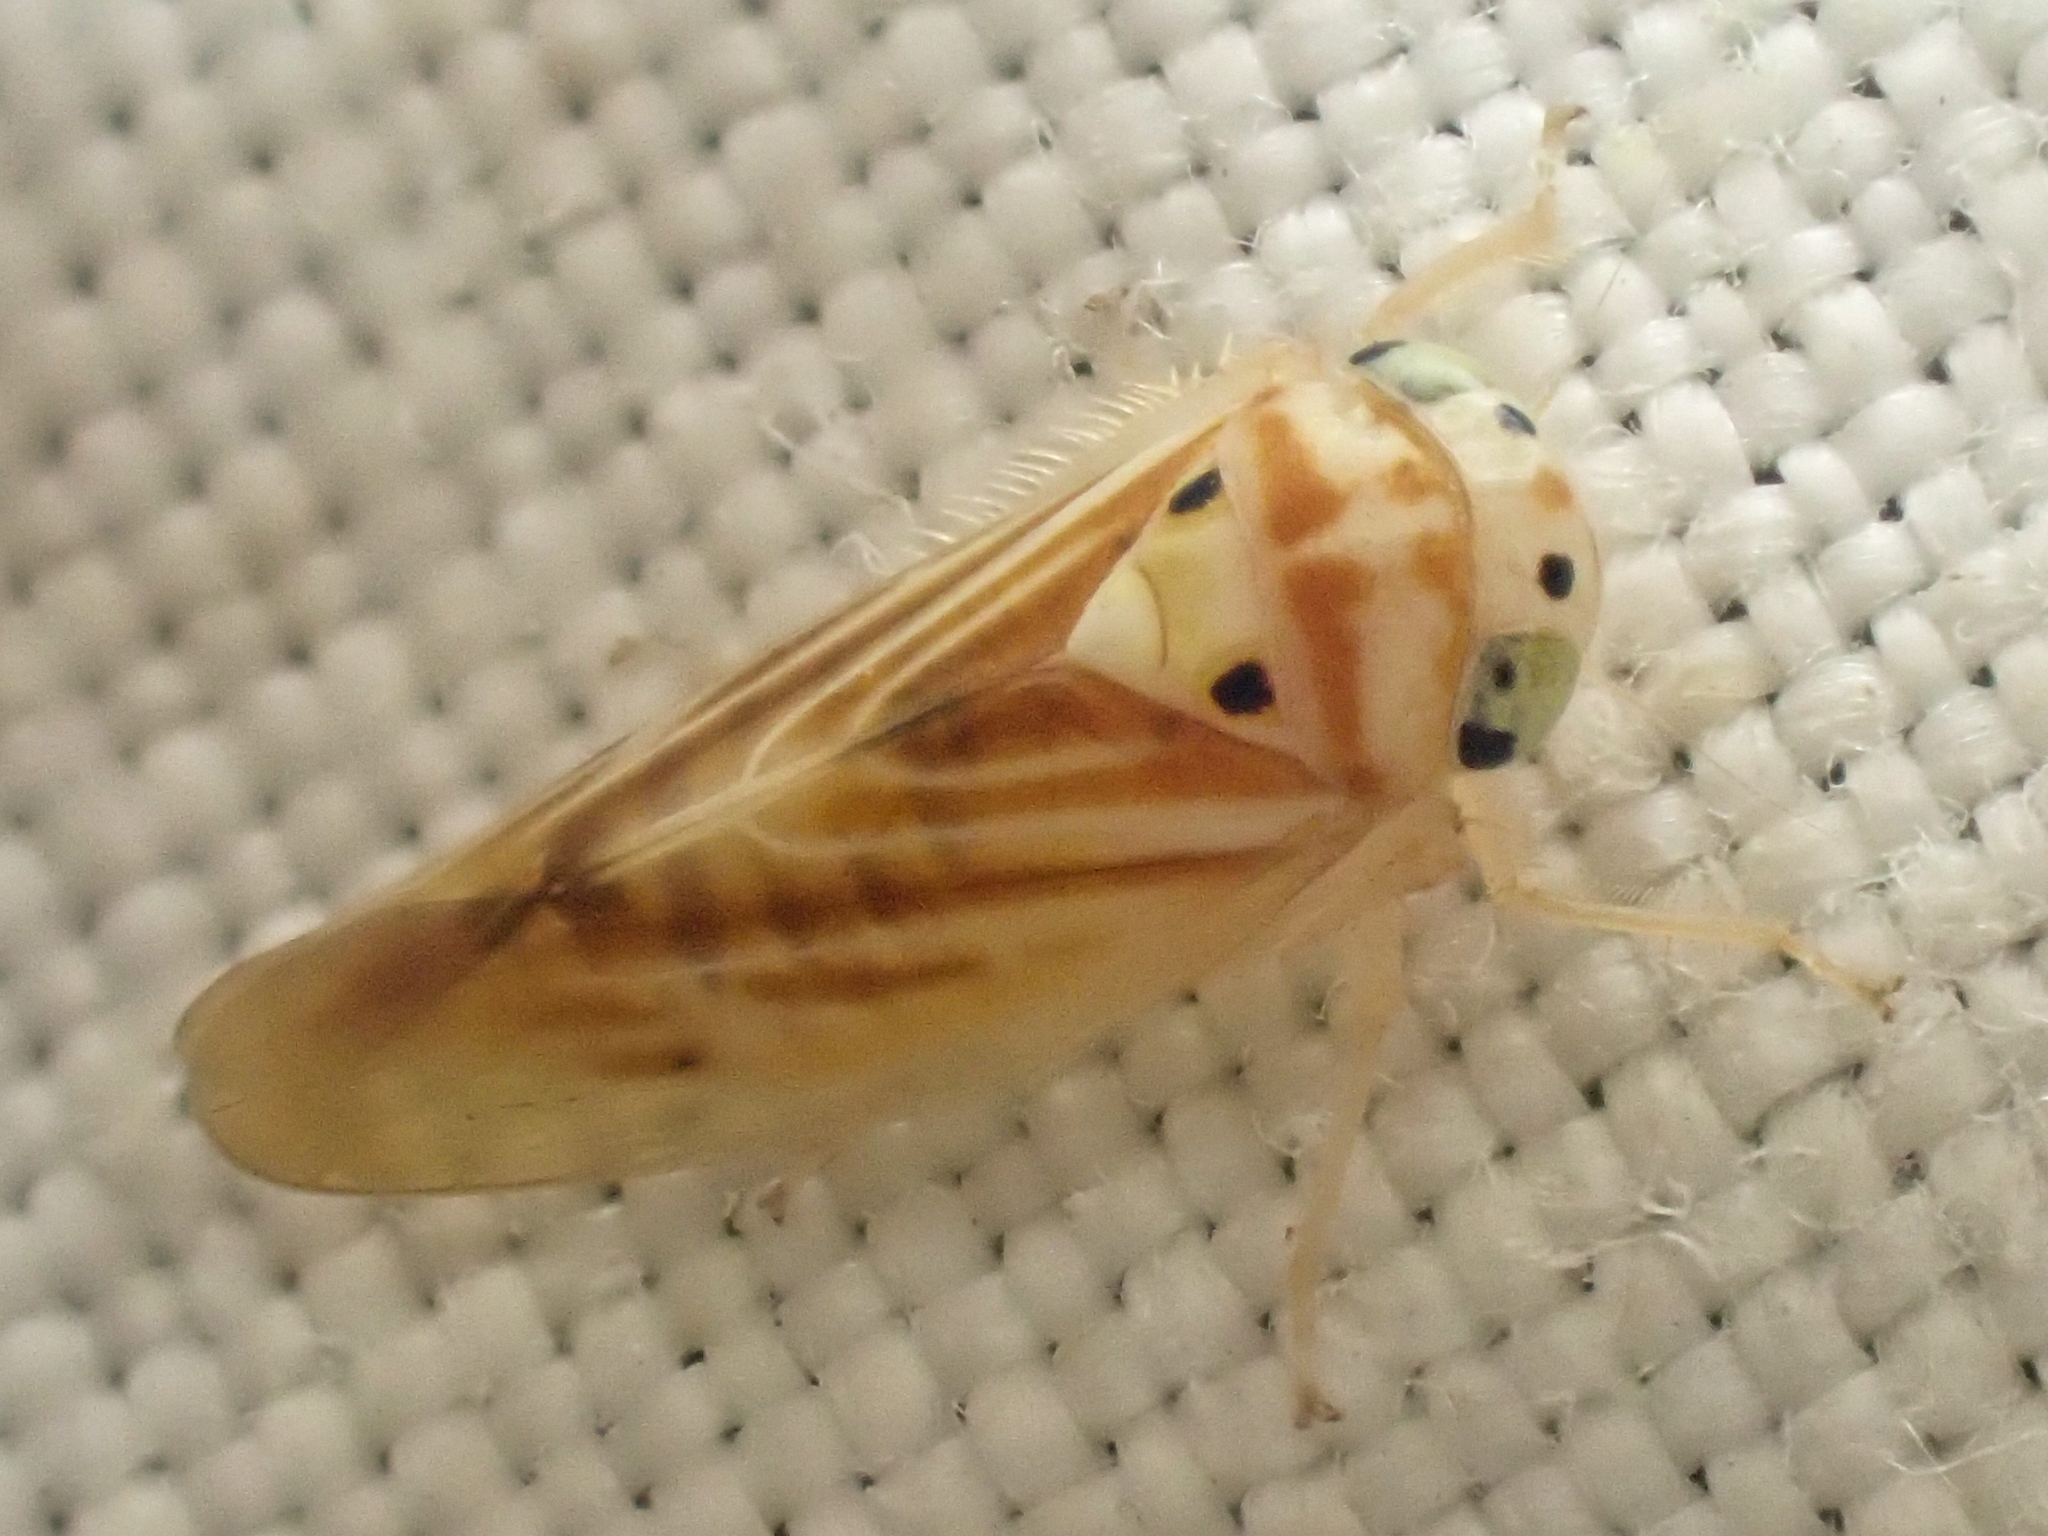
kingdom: Animalia
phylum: Arthropoda
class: Insecta
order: Hemiptera
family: Cicadellidae
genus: Caladonus
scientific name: Caladonus coquilletti
